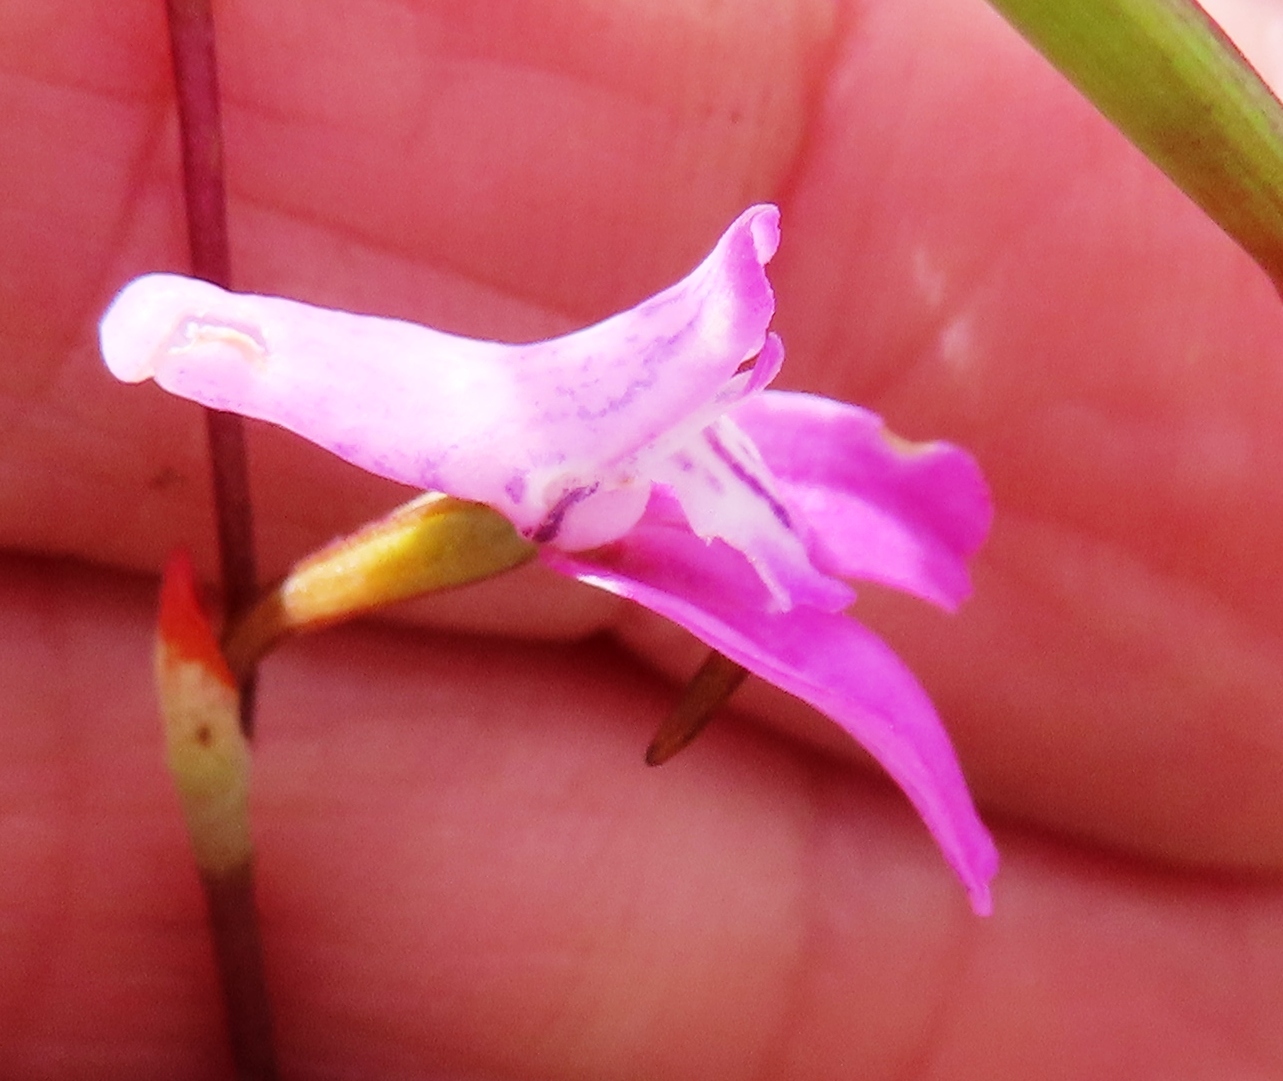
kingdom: Plantae
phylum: Tracheophyta
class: Liliopsida
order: Asparagales
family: Orchidaceae
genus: Disa
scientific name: Disa inflexa
